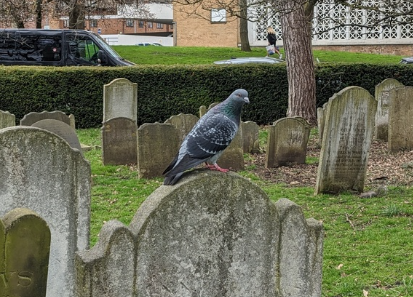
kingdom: Animalia
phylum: Chordata
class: Aves
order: Columbiformes
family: Columbidae
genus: Columba
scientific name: Columba livia
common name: Rock pigeon
